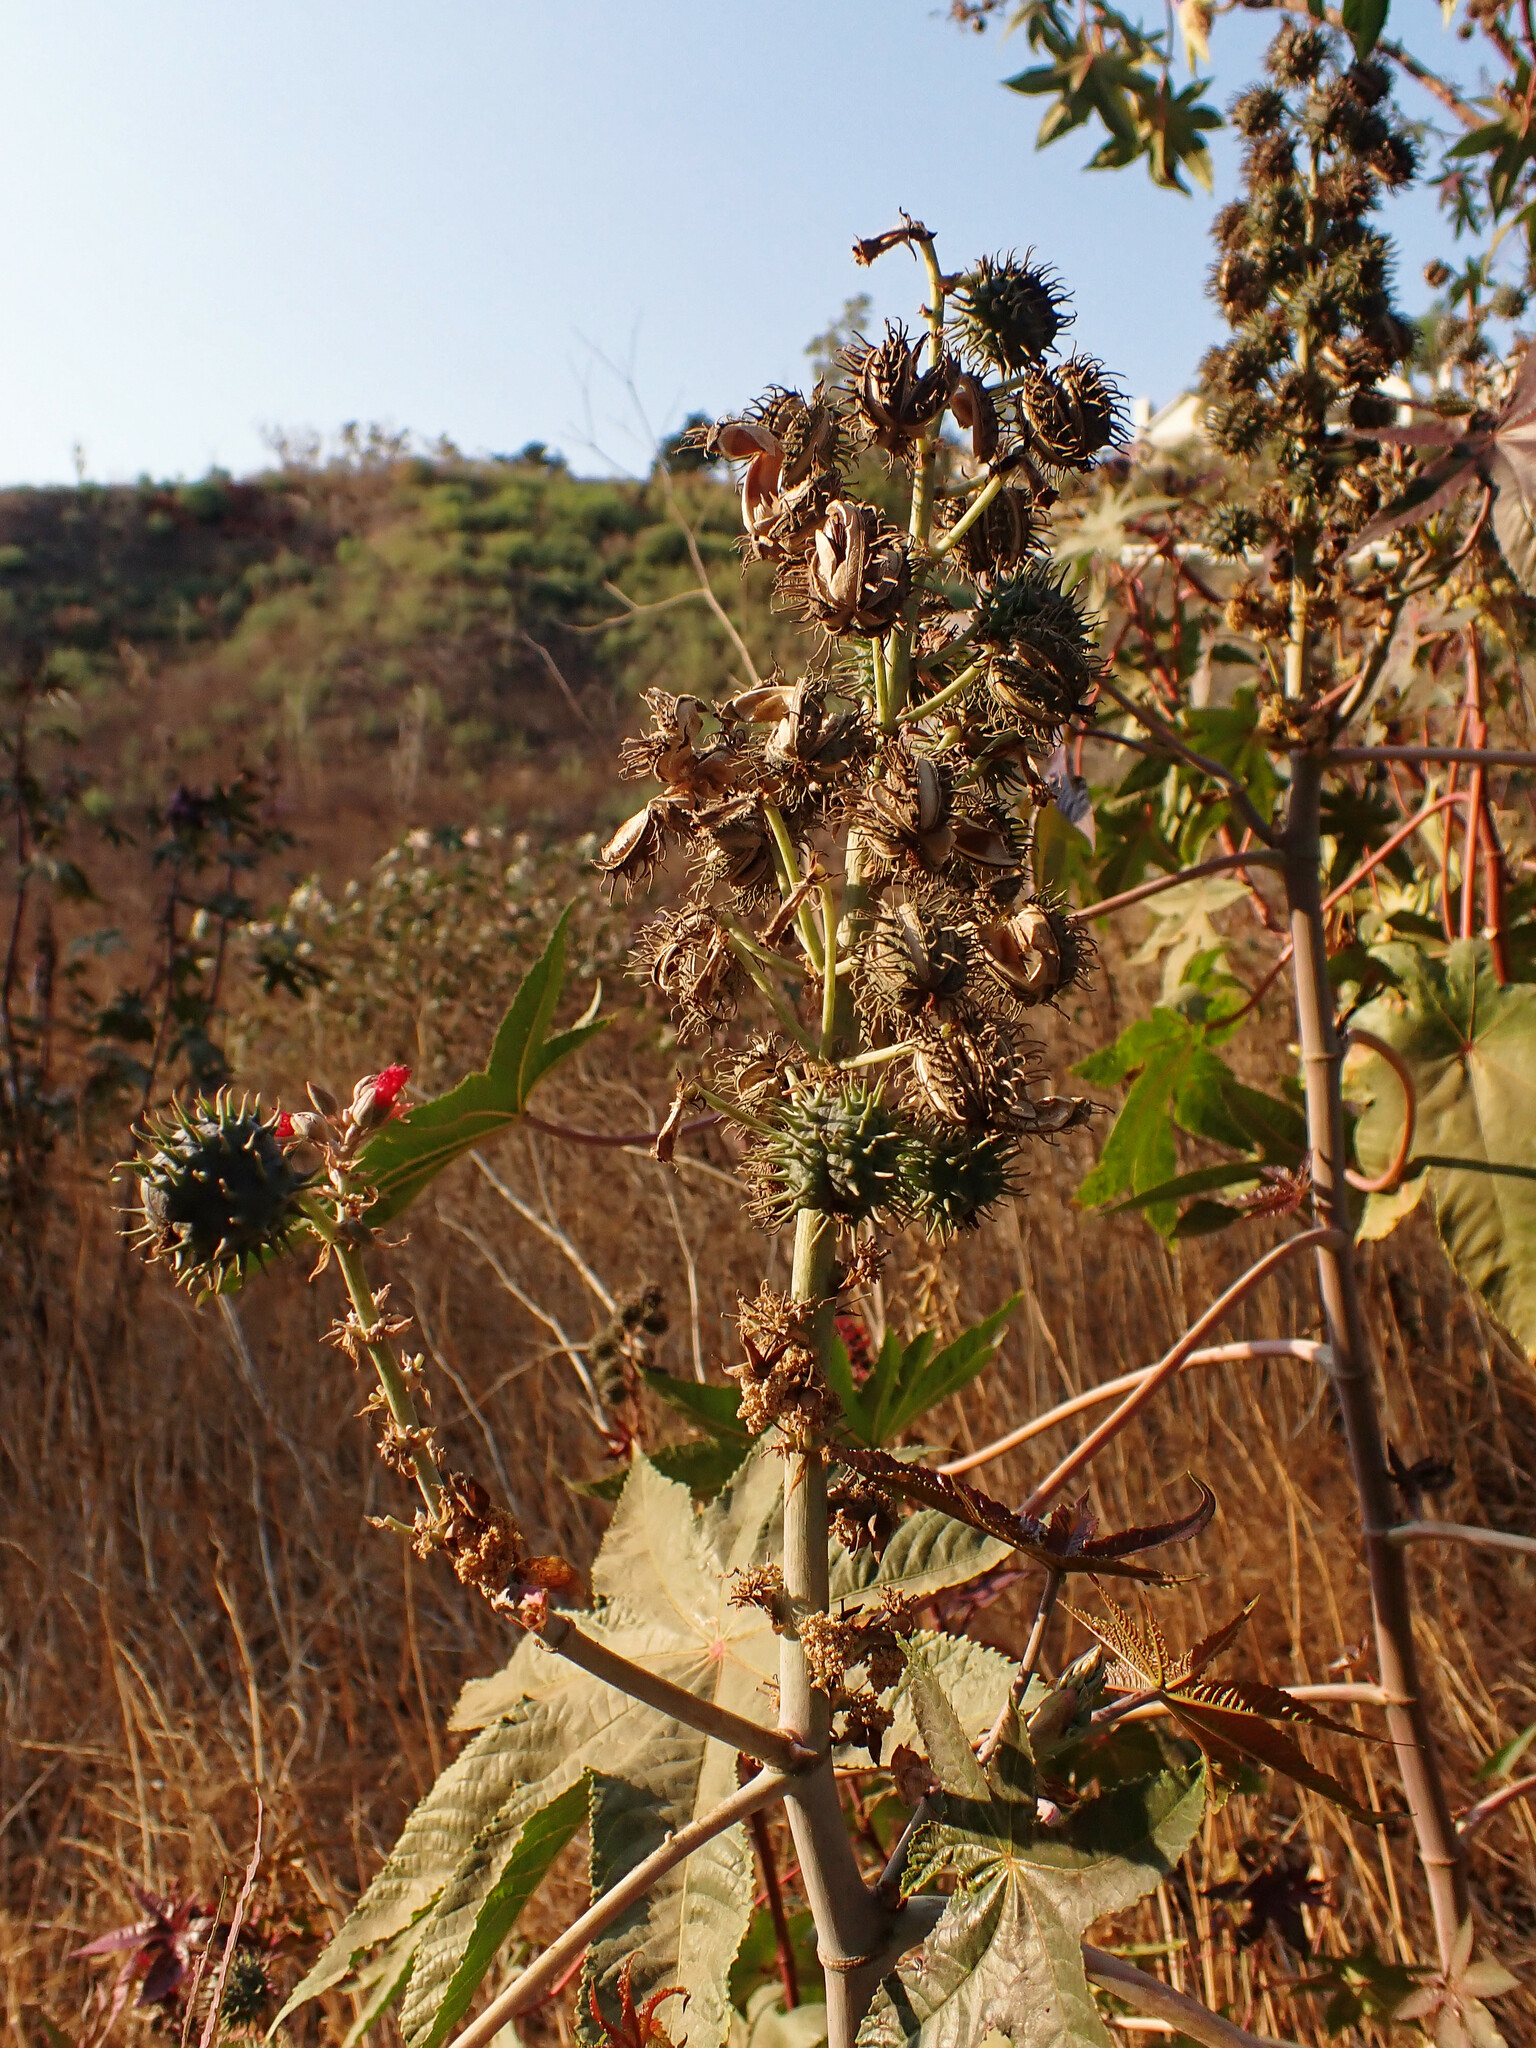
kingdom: Plantae
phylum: Tracheophyta
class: Magnoliopsida
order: Malpighiales
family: Euphorbiaceae
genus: Ricinus
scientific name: Ricinus communis
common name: Castor-oil-plant
